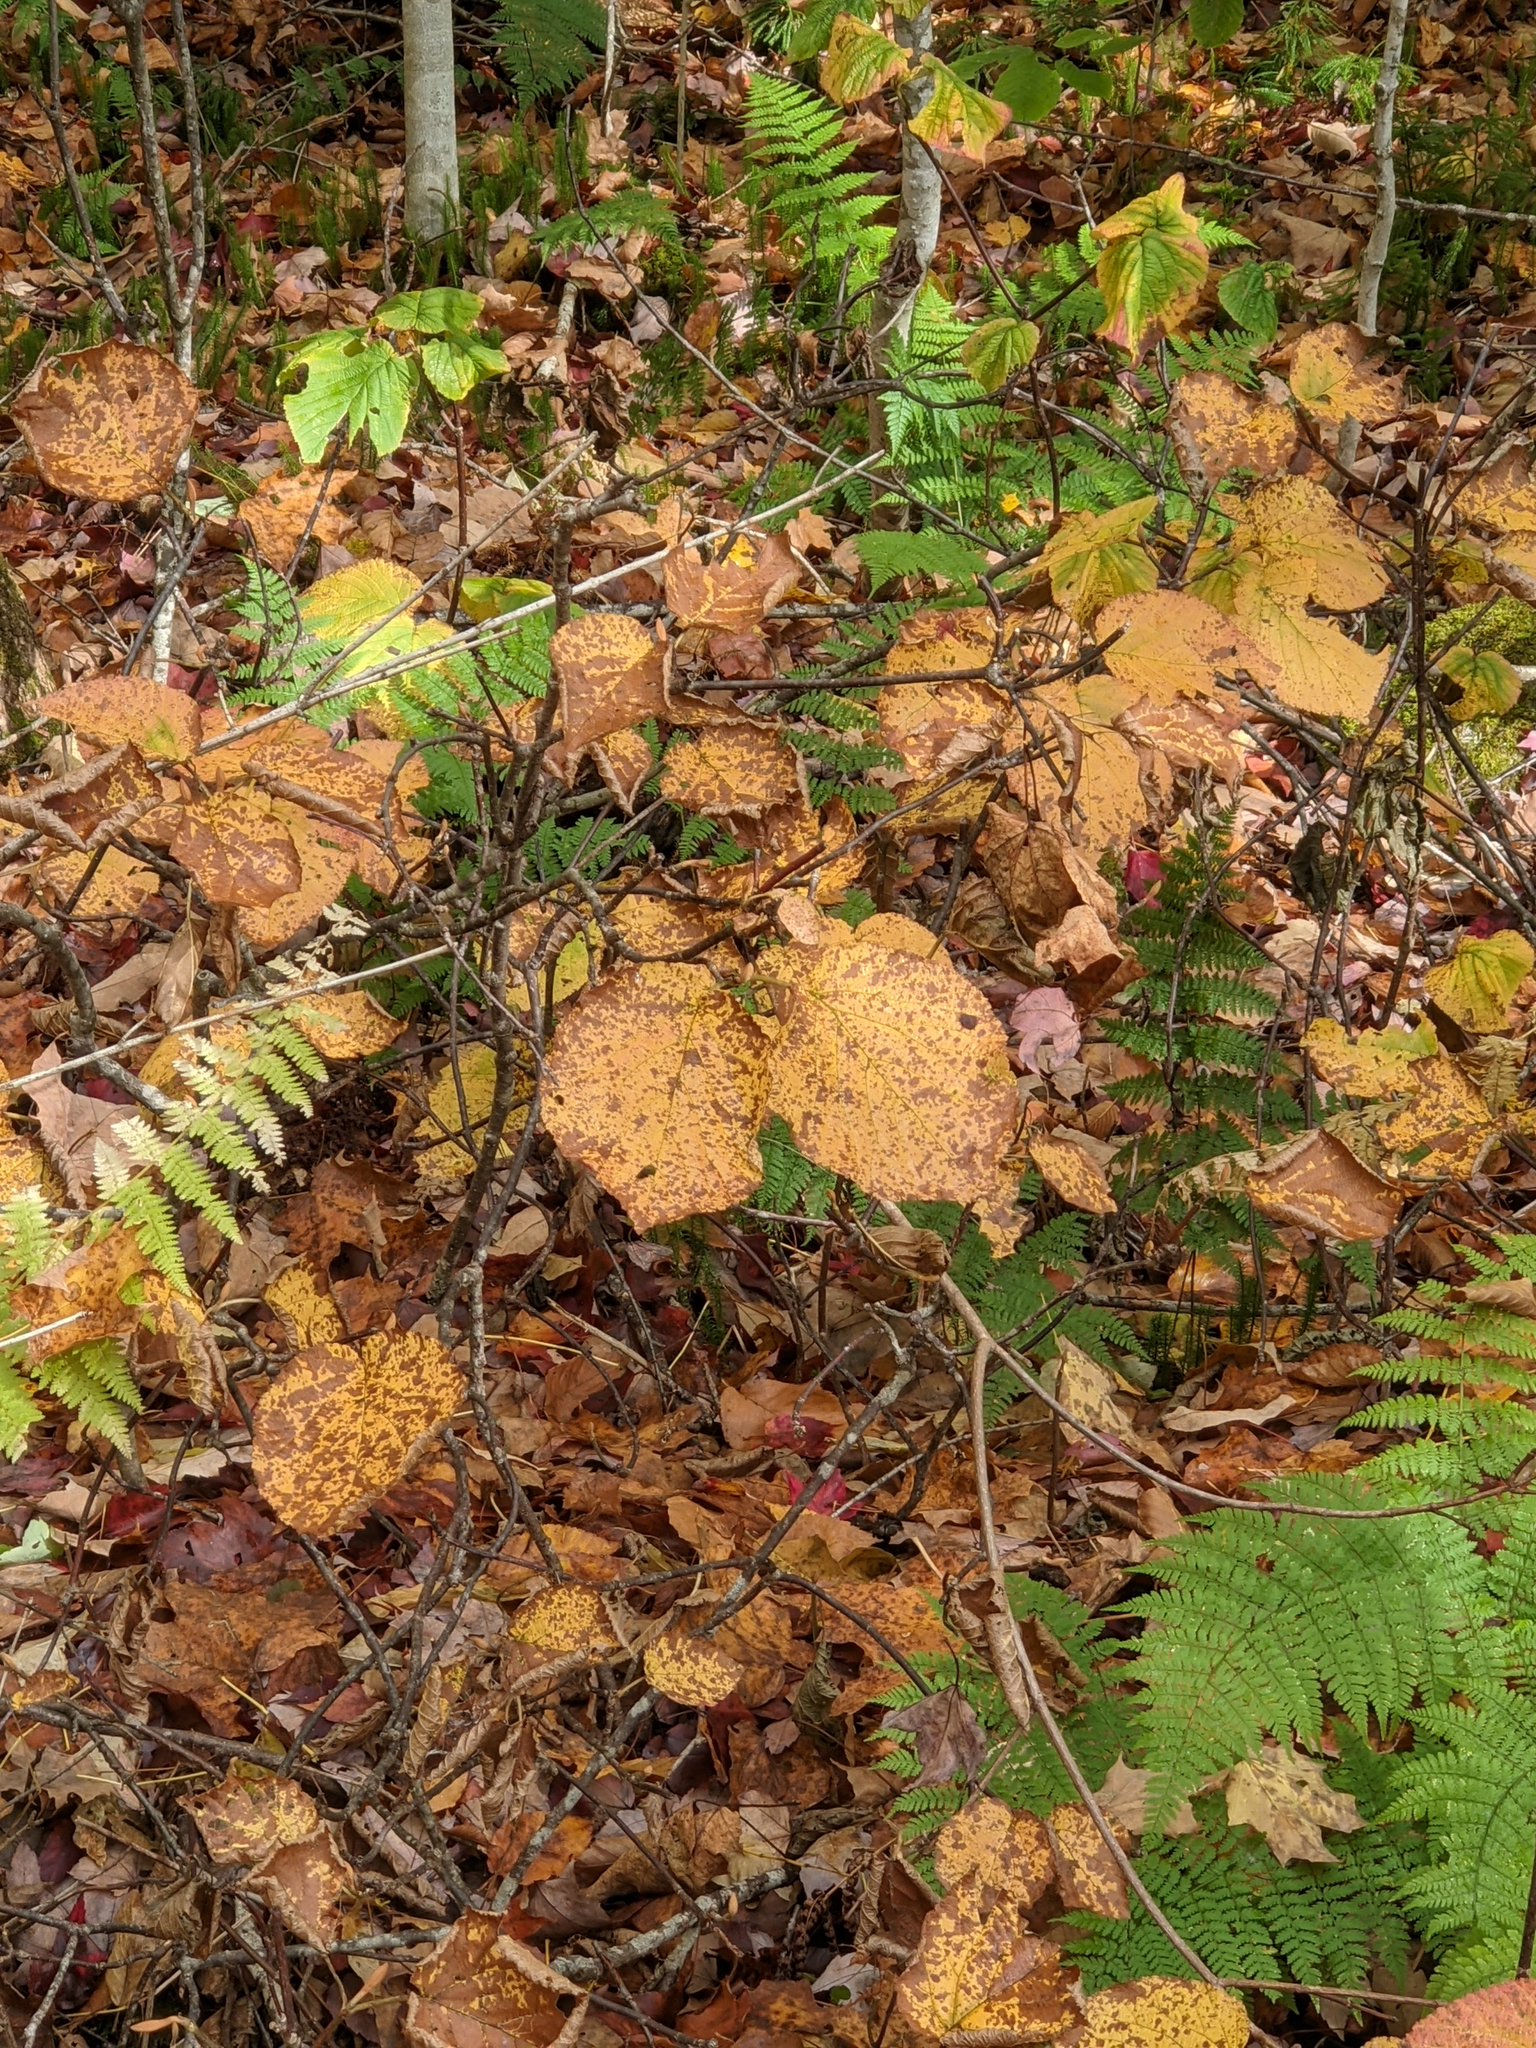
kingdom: Plantae
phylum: Tracheophyta
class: Magnoliopsida
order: Dipsacales
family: Viburnaceae
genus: Viburnum
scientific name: Viburnum lantanoides
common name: Hobblebush
